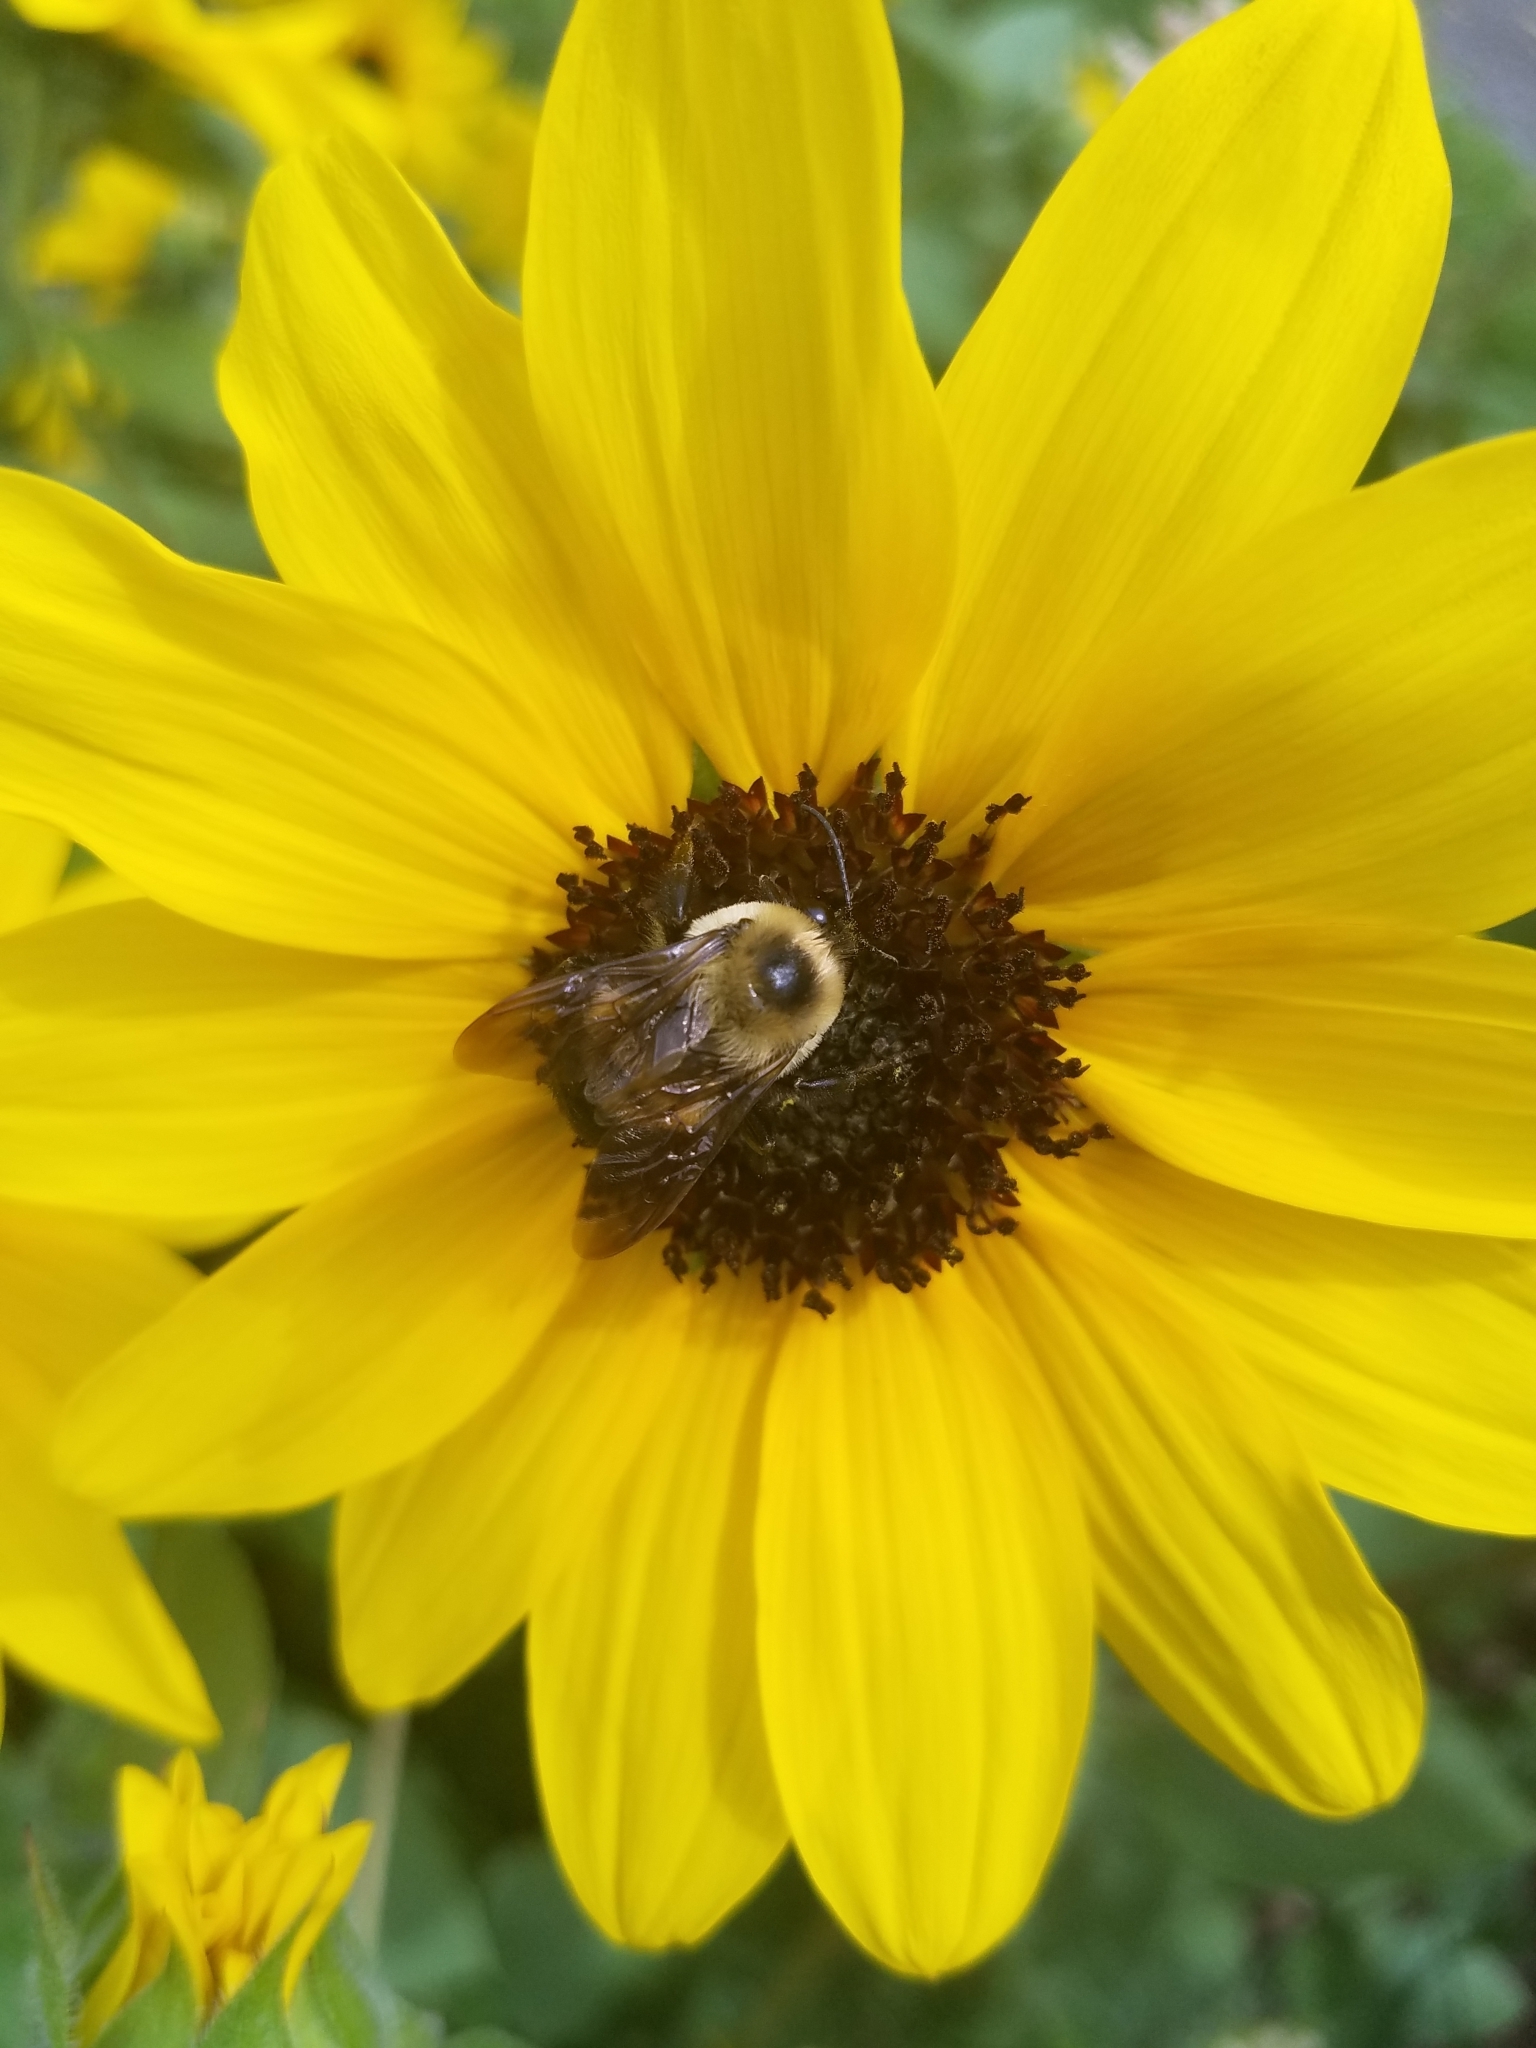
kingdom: Animalia
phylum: Arthropoda
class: Insecta
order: Hymenoptera
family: Apidae
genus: Bombus
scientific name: Bombus griseocollis
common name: Brown-belted bumble bee
